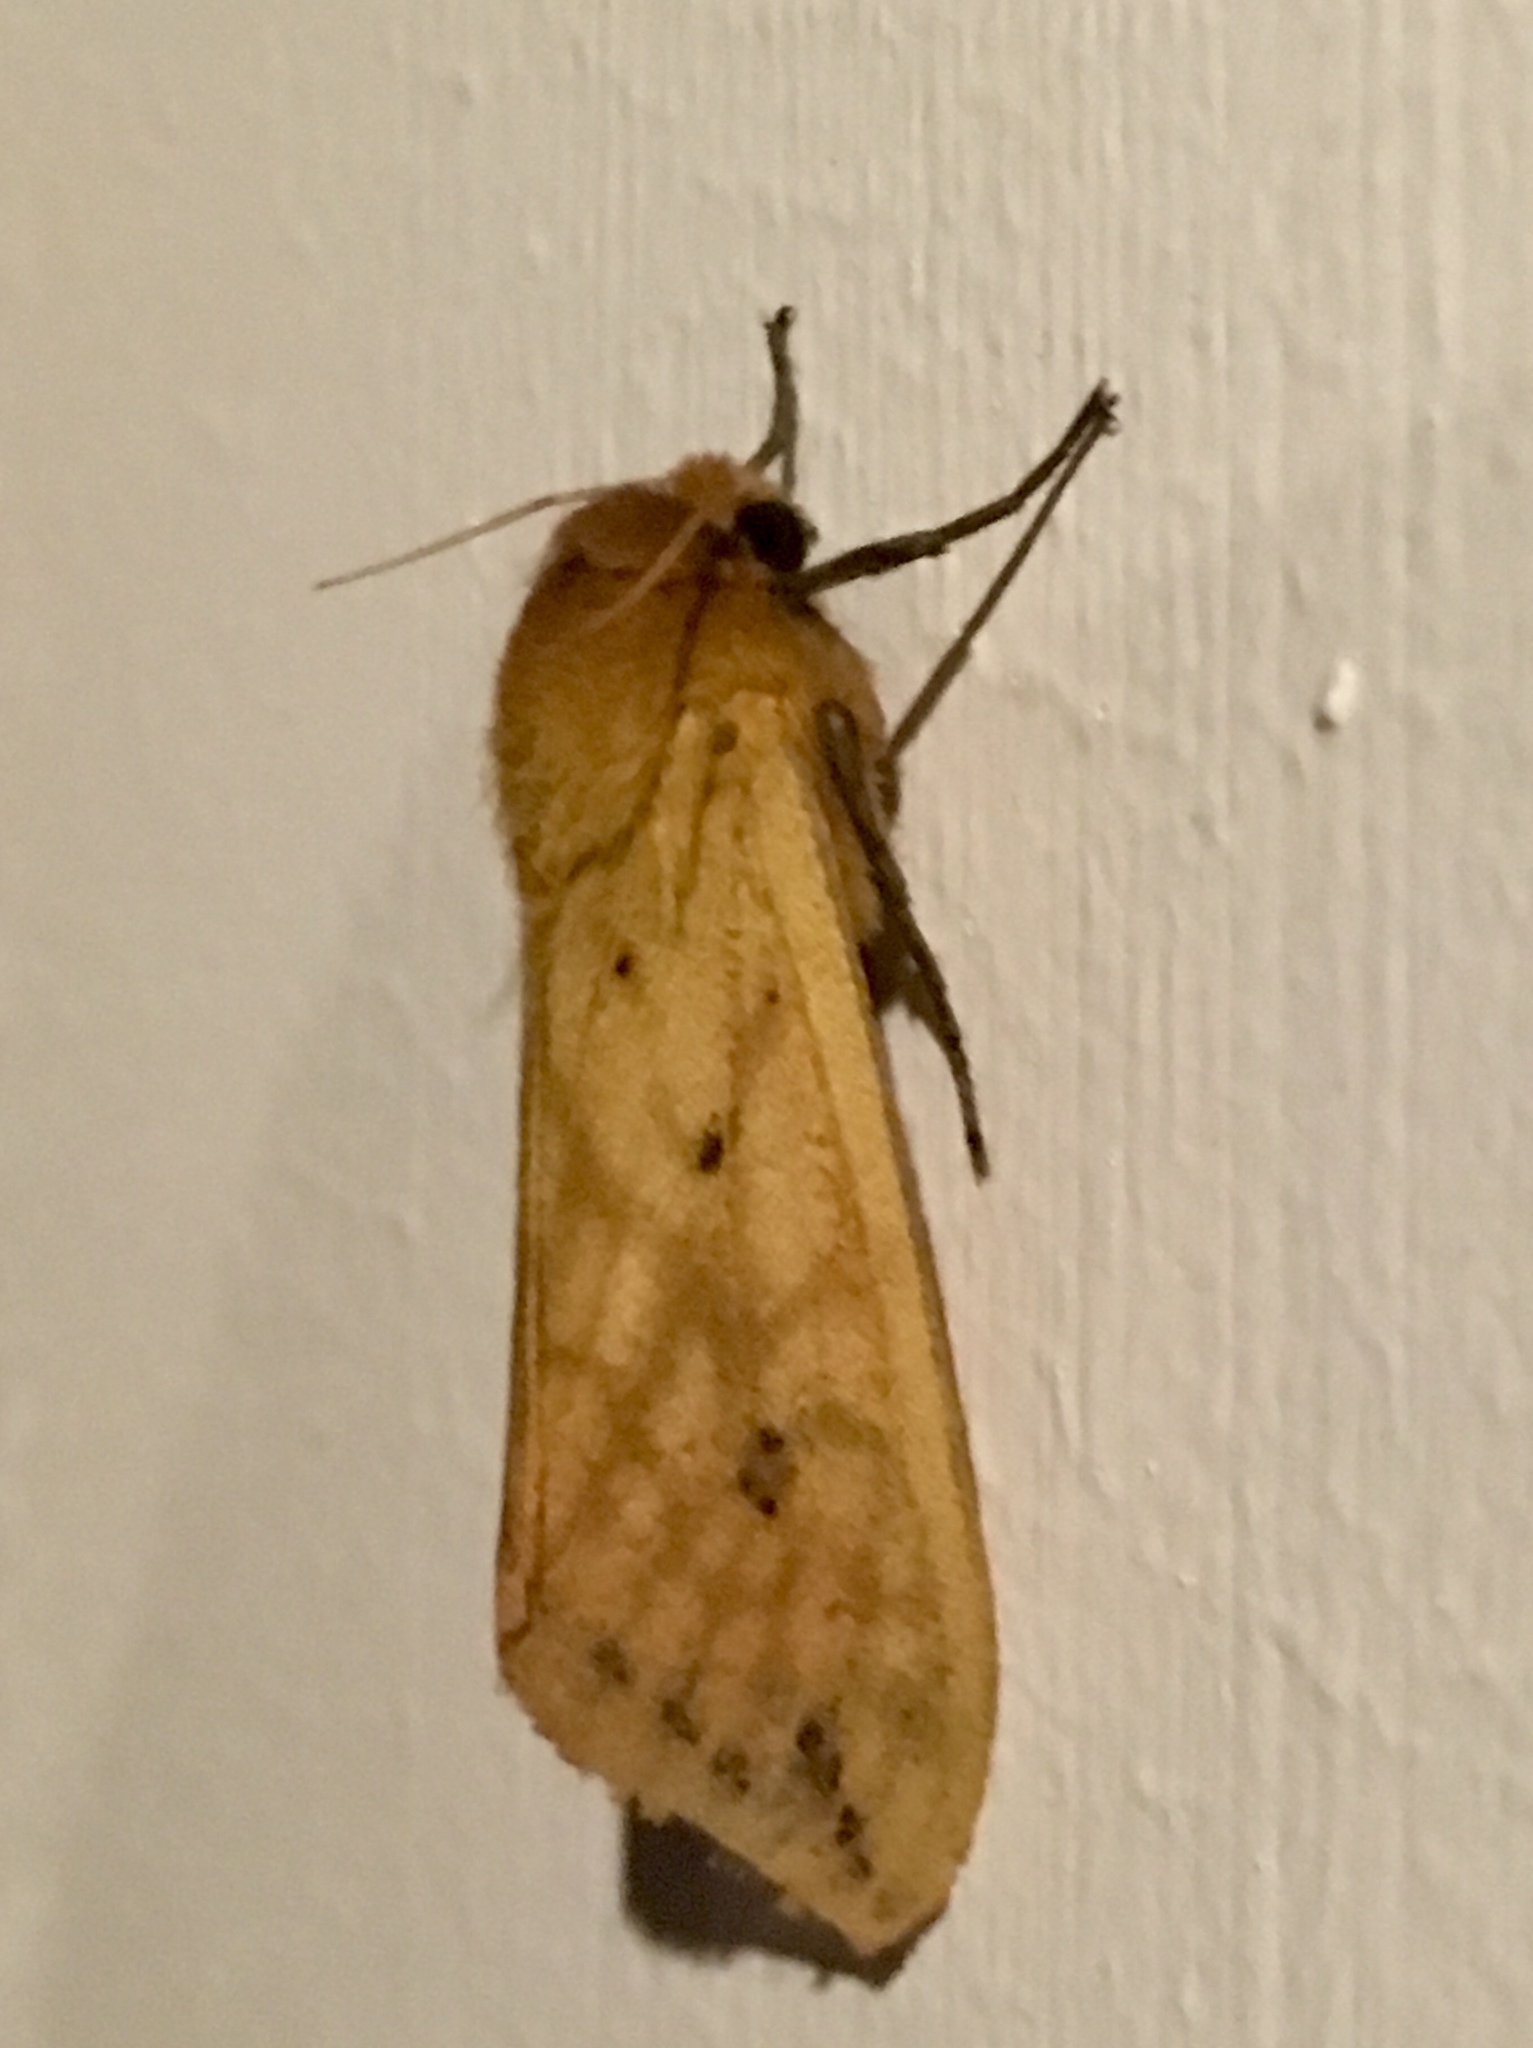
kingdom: Animalia
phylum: Arthropoda
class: Insecta
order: Lepidoptera
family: Erebidae
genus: Pyrrharctia
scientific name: Pyrrharctia isabella
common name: Isabella tiger moth
